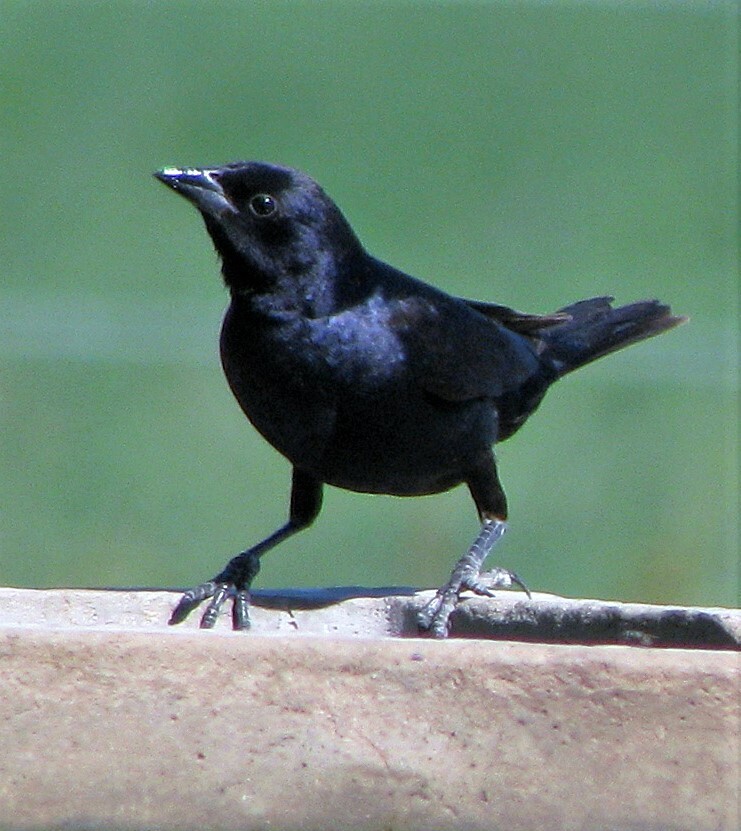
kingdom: Animalia
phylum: Chordata
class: Aves
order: Passeriformes
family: Icteridae
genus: Molothrus
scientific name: Molothrus bonariensis
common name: Shiny cowbird
